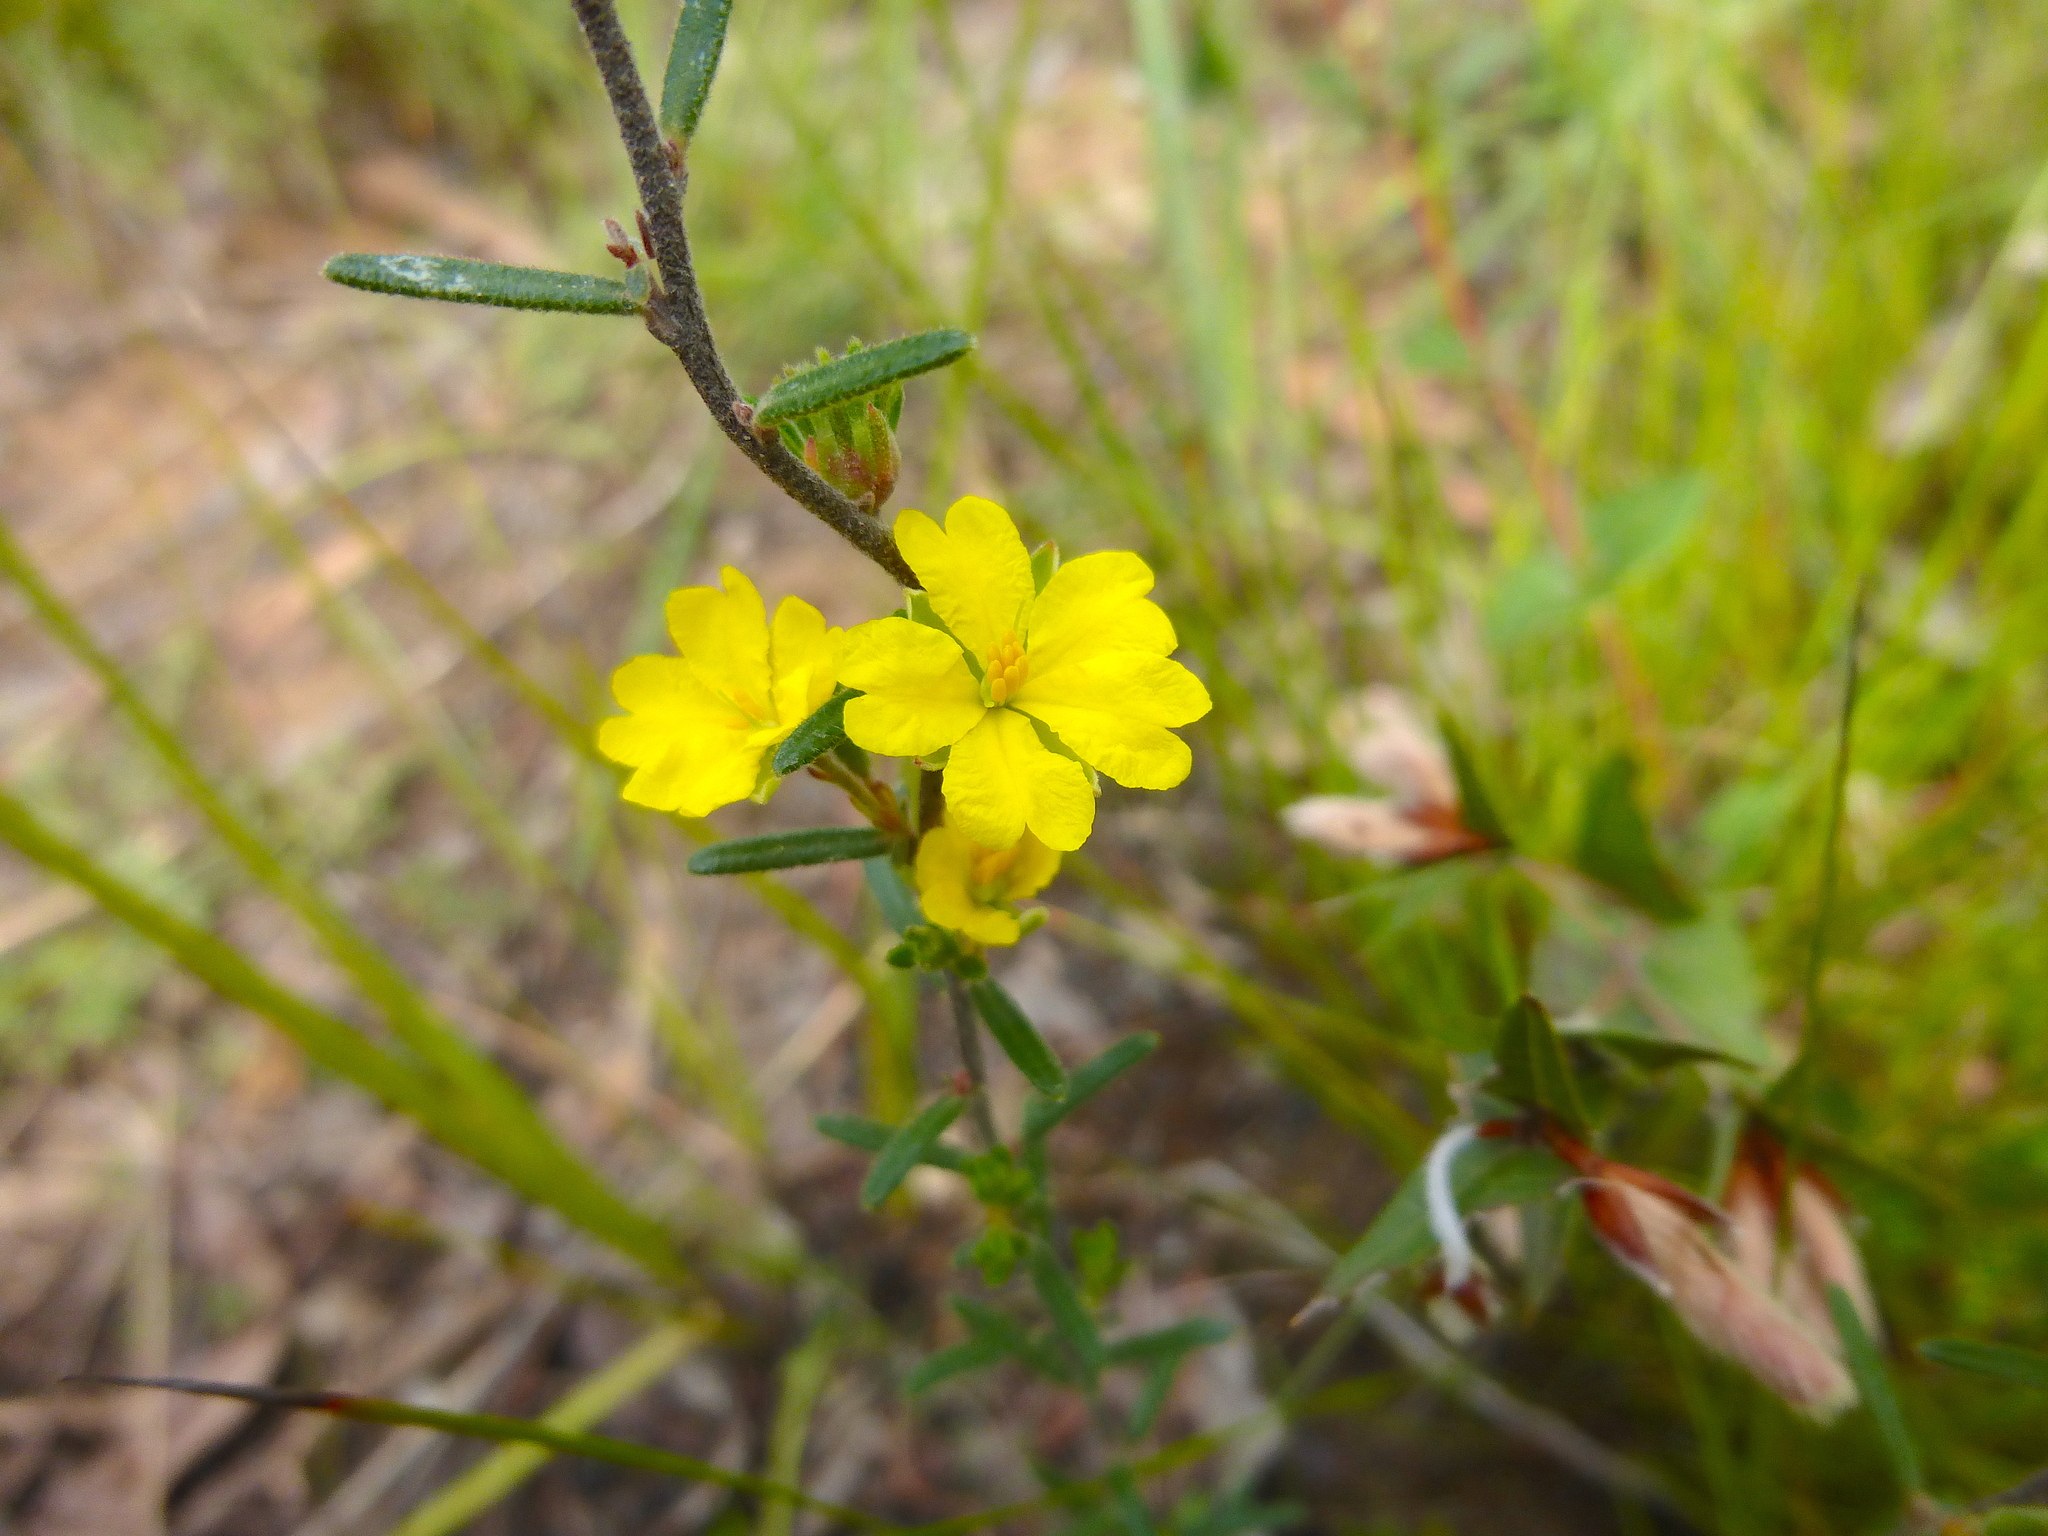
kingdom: Plantae
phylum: Tracheophyta
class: Magnoliopsida
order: Dilleniales
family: Dilleniaceae
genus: Hibbertia
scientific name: Hibbertia riparia
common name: Erect guinea-flower
